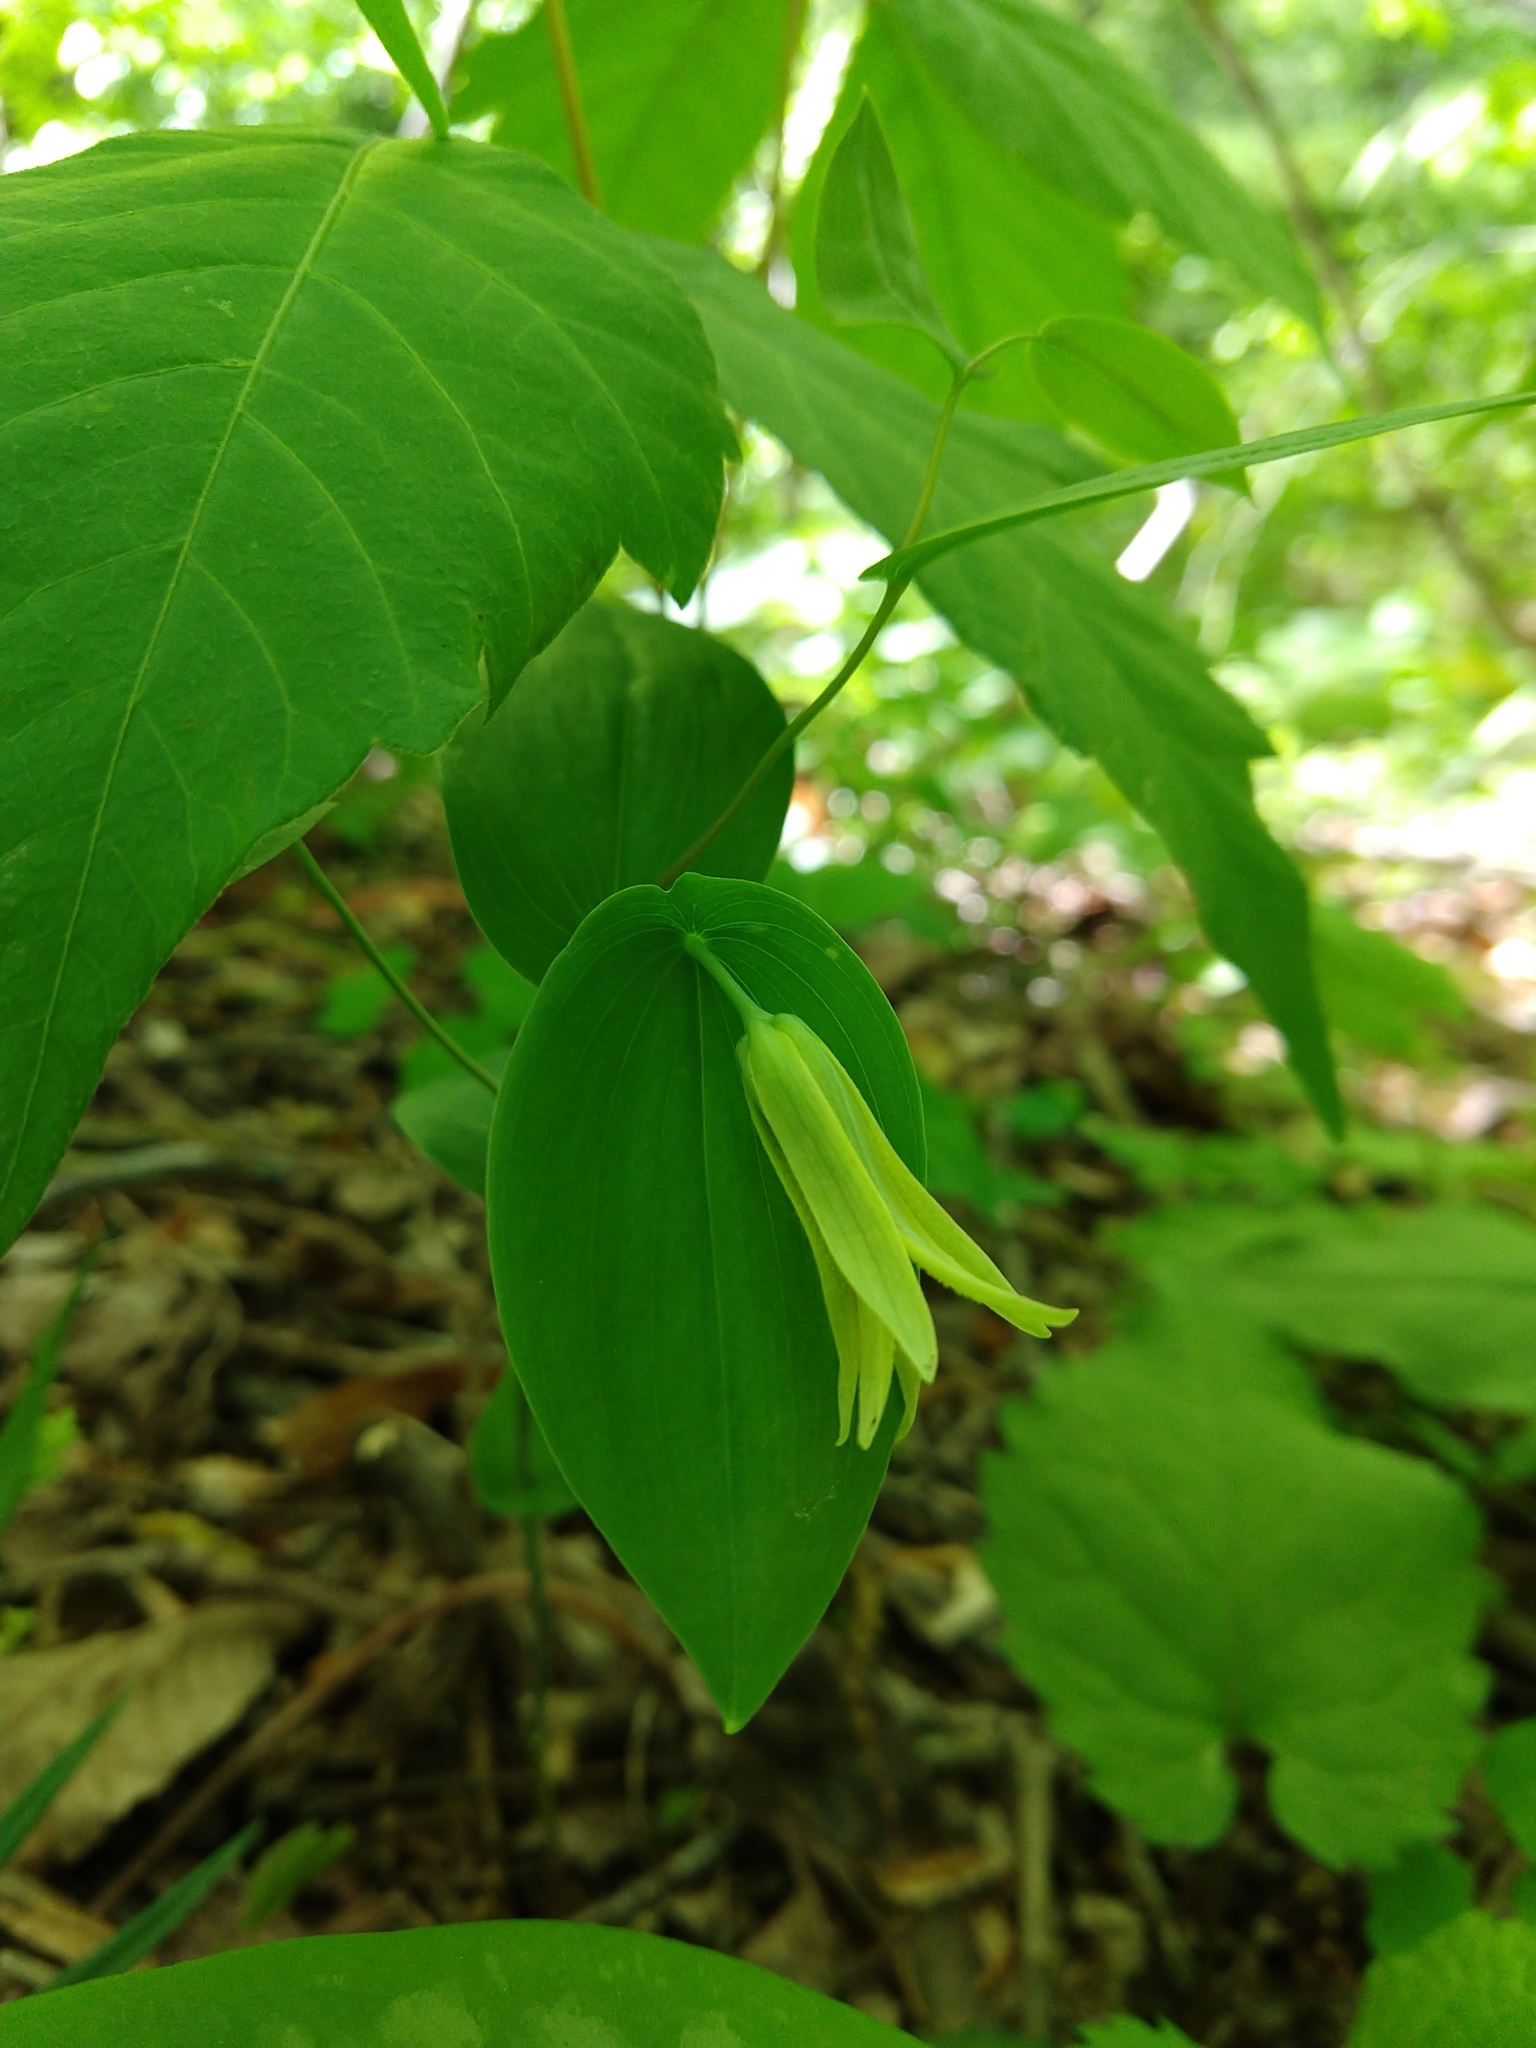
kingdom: Plantae
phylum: Tracheophyta
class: Liliopsida
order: Liliales
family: Colchicaceae
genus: Uvularia
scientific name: Uvularia perfoliata
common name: Perfoliate bellwort
